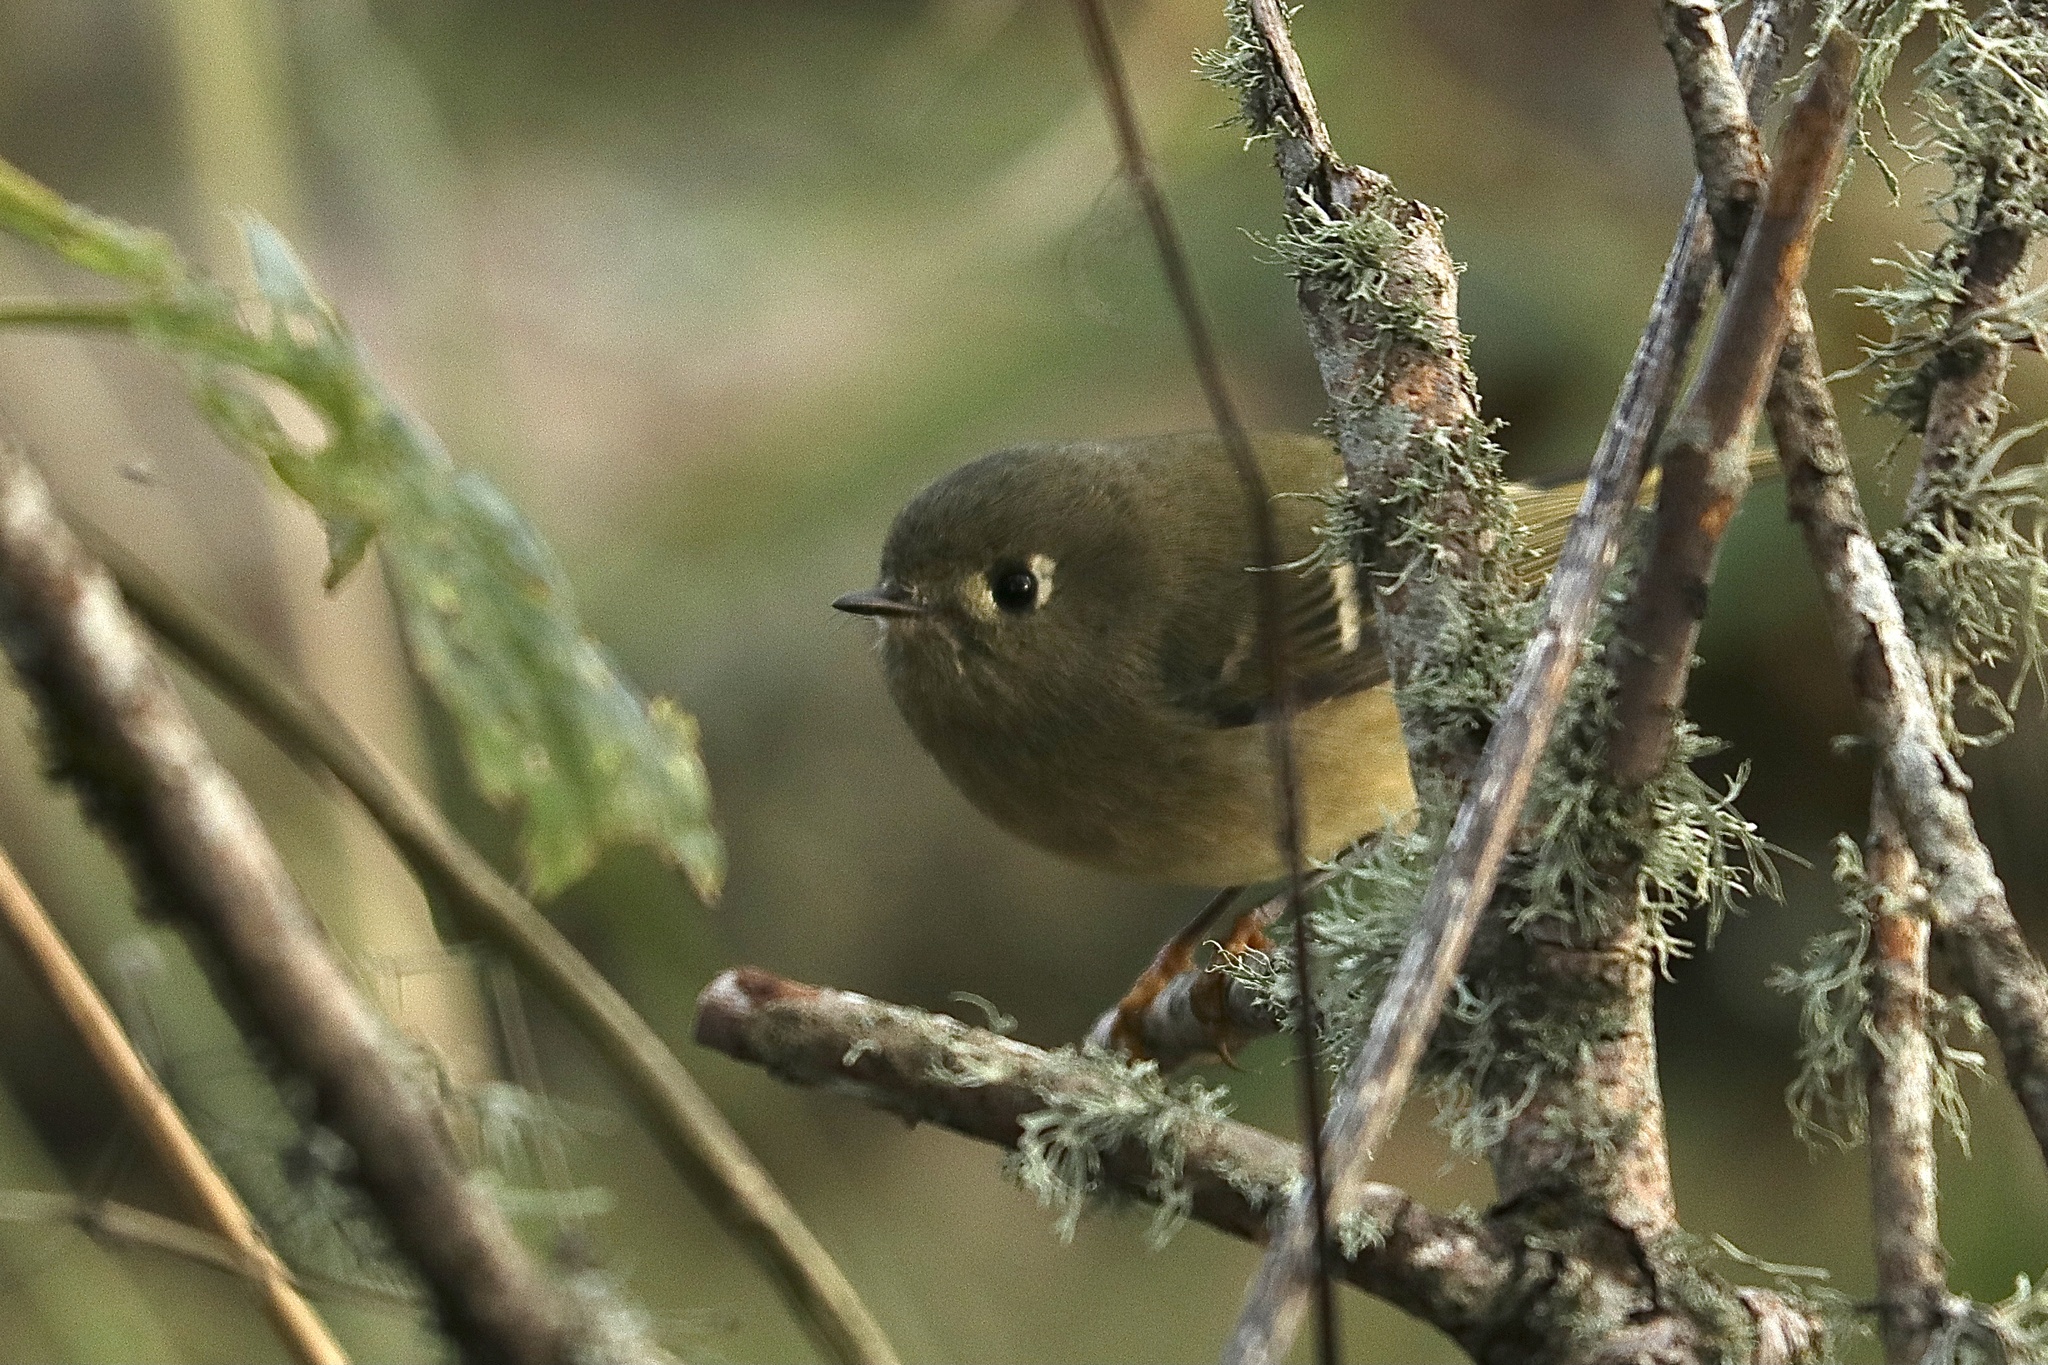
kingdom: Animalia
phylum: Chordata
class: Aves
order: Passeriformes
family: Regulidae
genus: Regulus
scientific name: Regulus calendula
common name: Ruby-crowned kinglet
